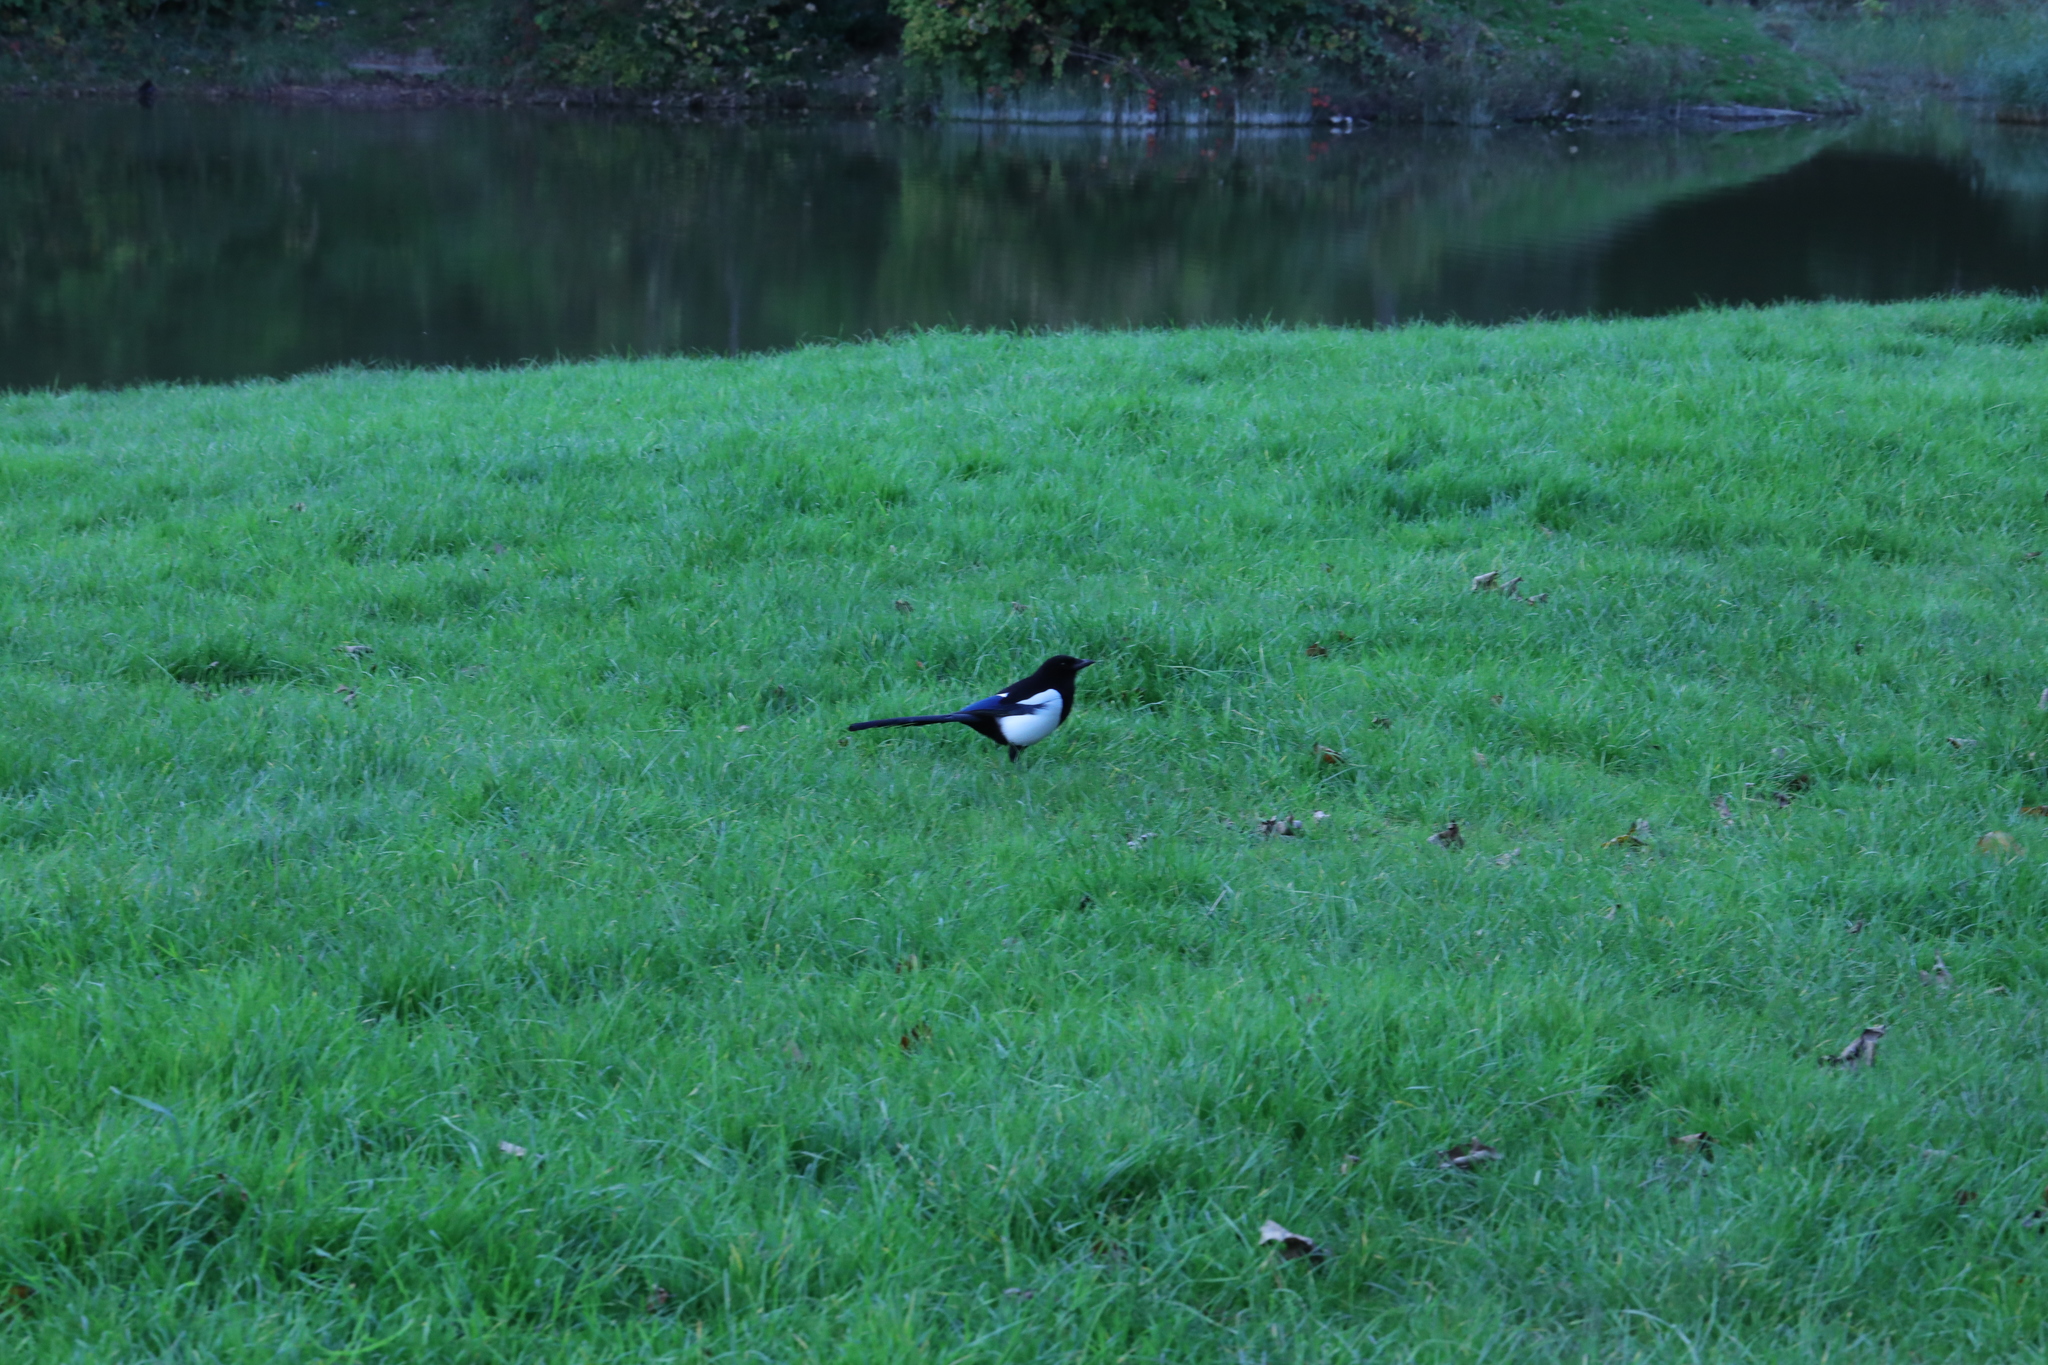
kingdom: Animalia
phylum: Chordata
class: Aves
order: Passeriformes
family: Corvidae
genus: Pica
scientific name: Pica pica
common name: Eurasian magpie
